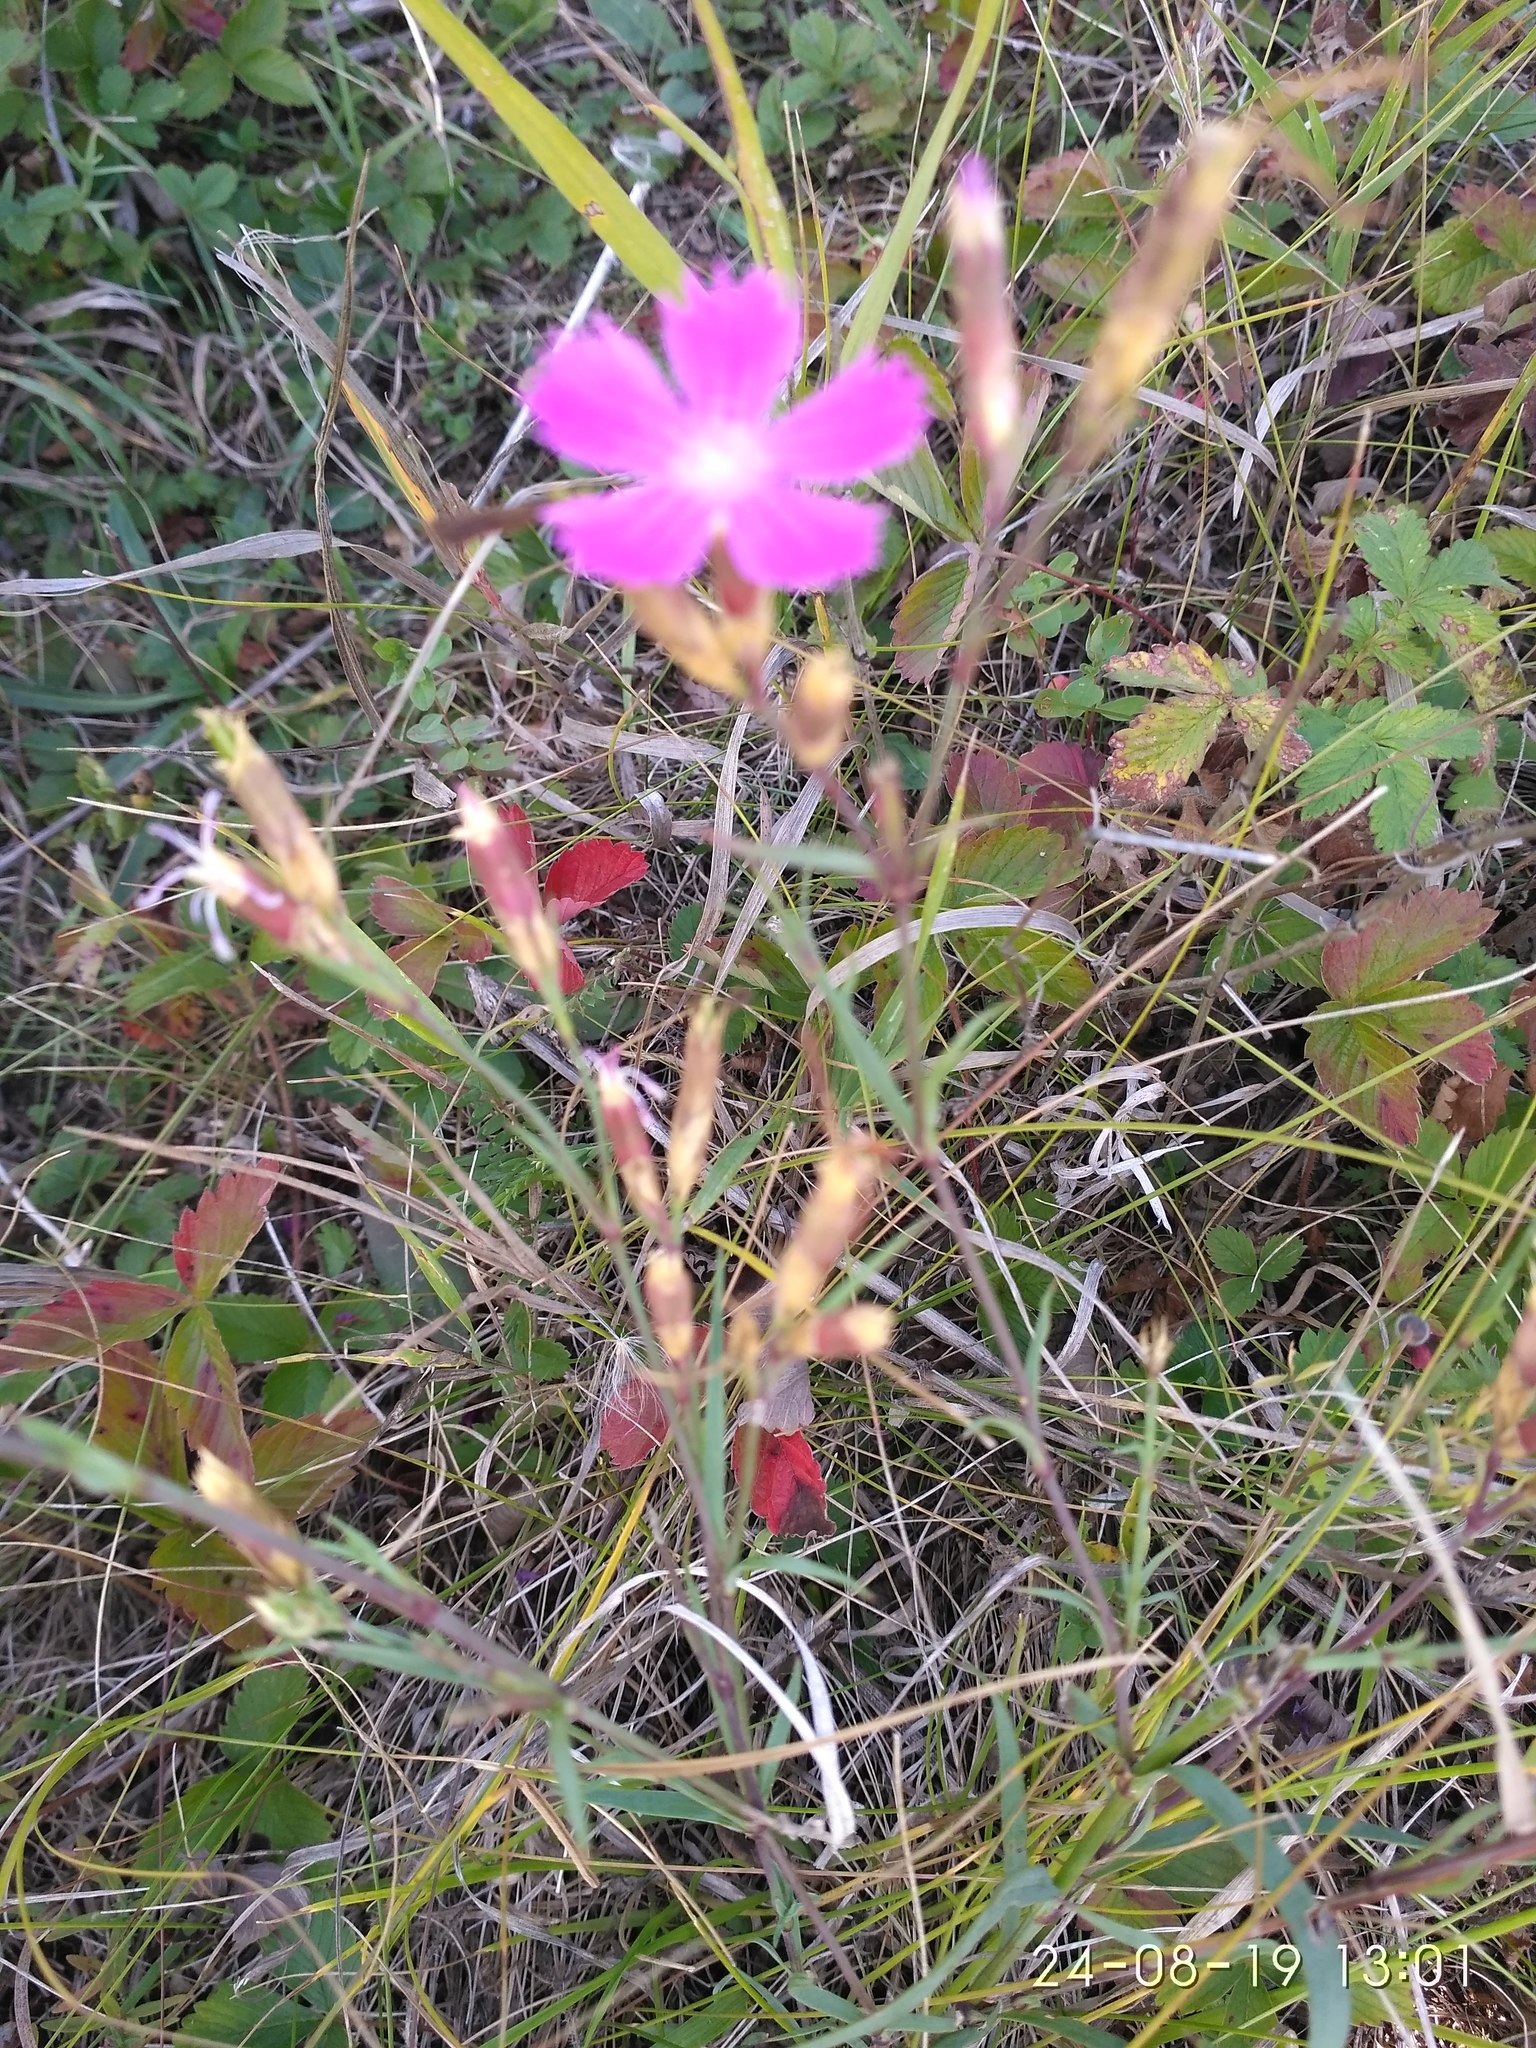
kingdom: Plantae
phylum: Tracheophyta
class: Magnoliopsida
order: Caryophyllales
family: Caryophyllaceae
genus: Dianthus
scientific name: Dianthus chinensis
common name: Rainbow pink
